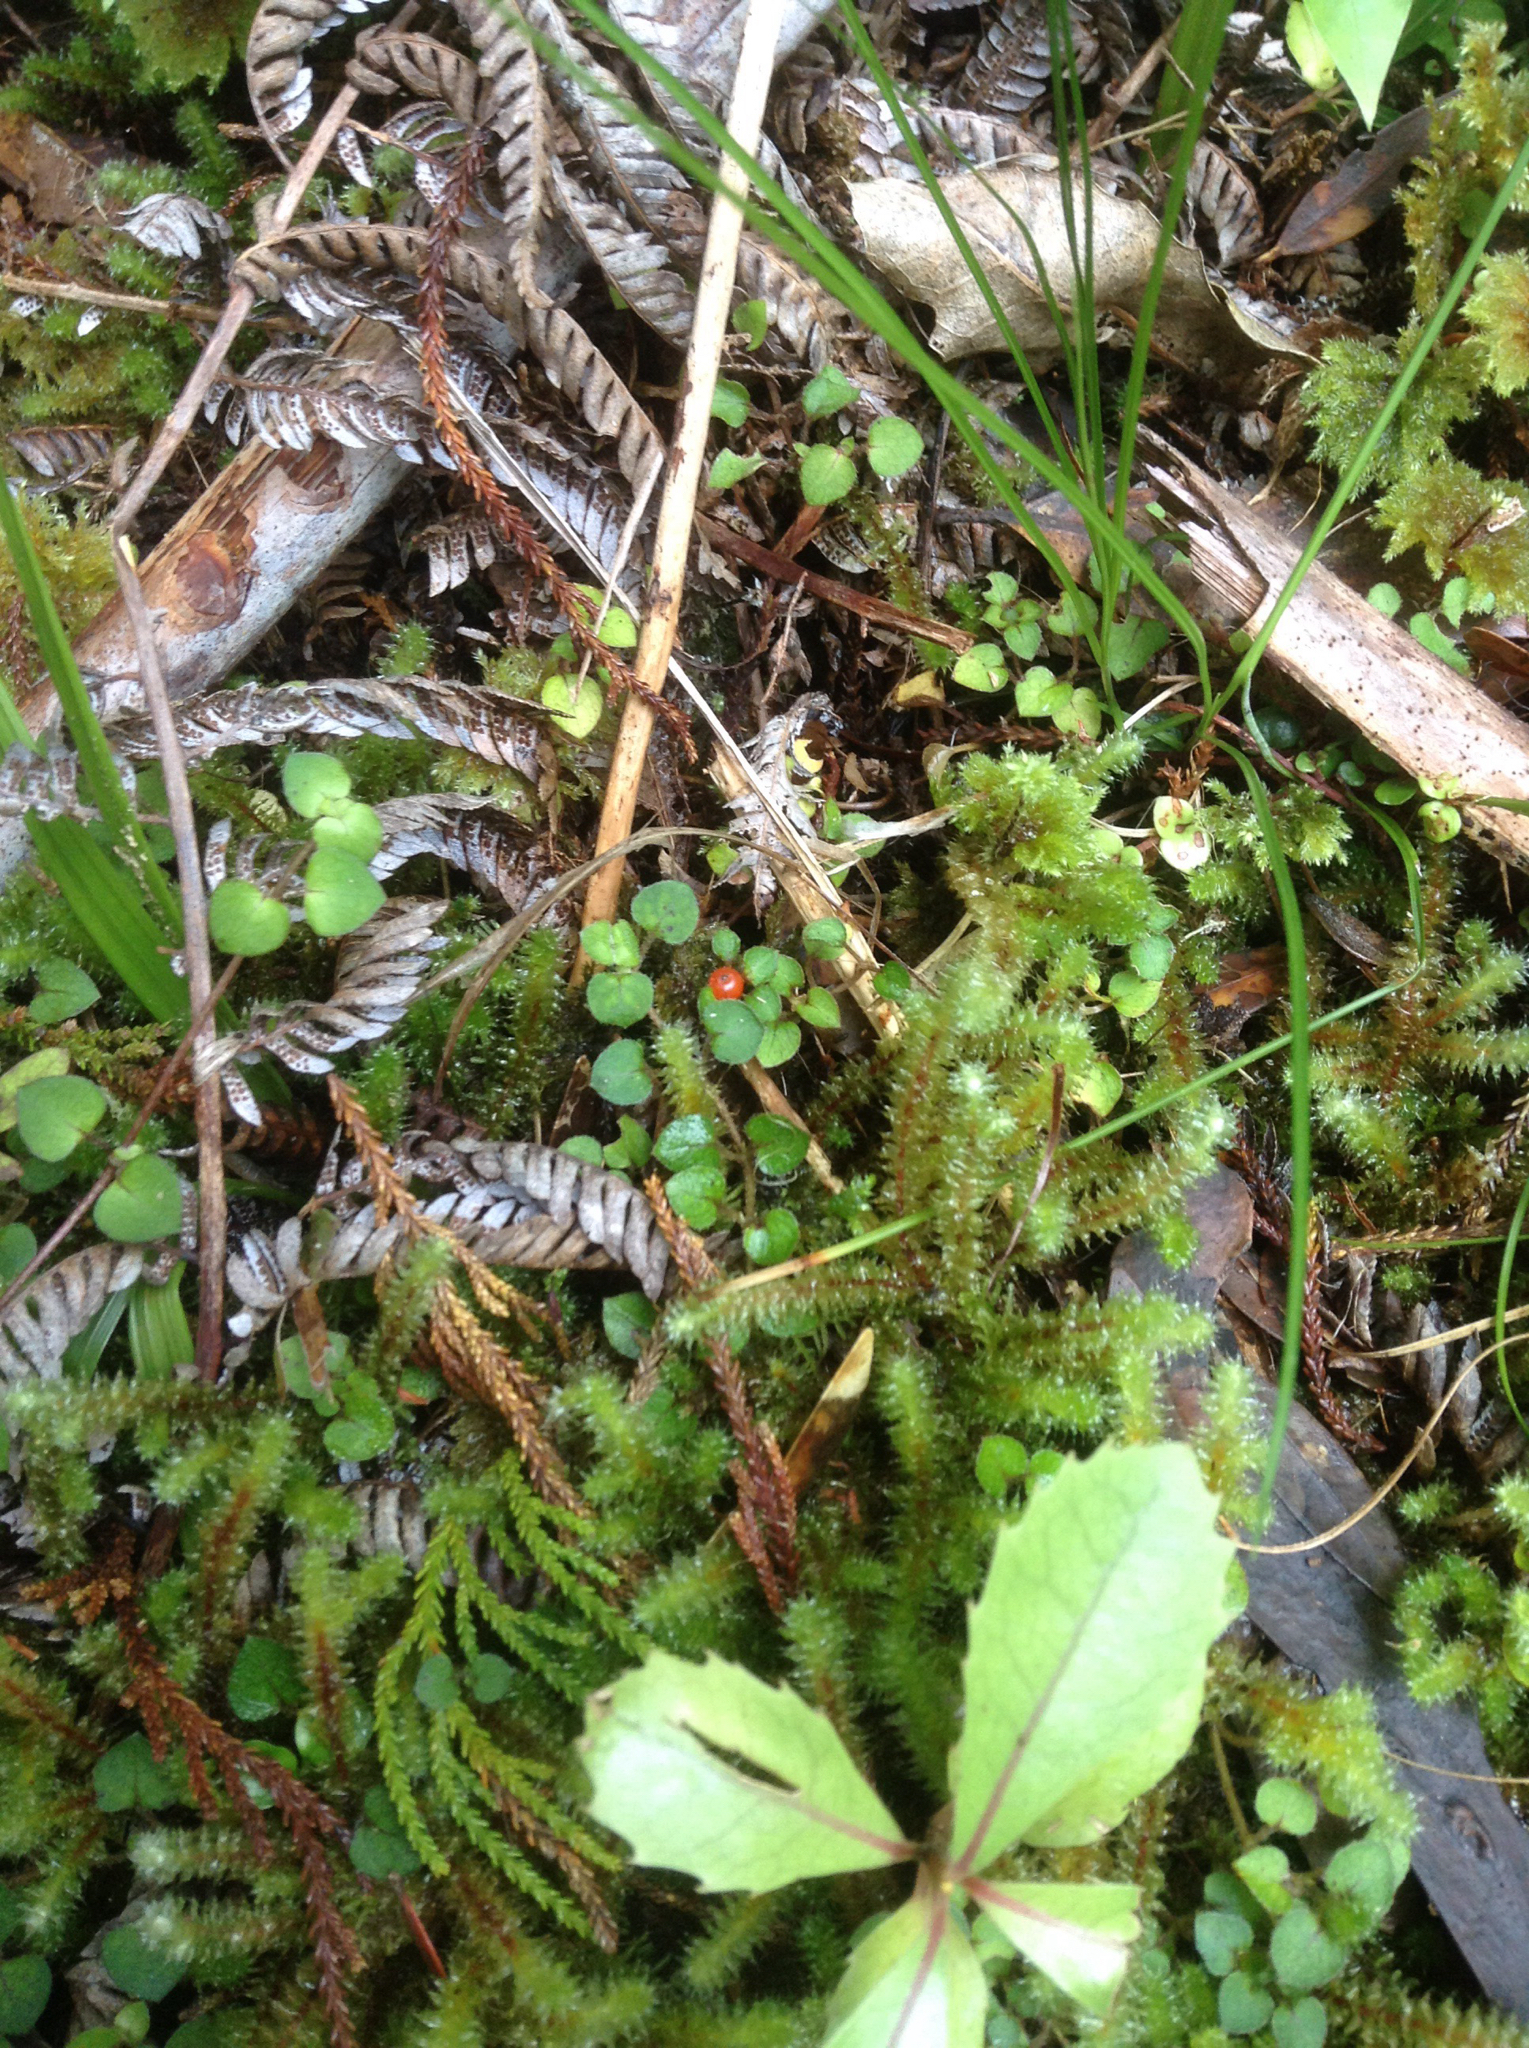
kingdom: Plantae
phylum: Tracheophyta
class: Magnoliopsida
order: Gentianales
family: Rubiaceae
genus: Nertera
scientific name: Nertera dichondrifolia
